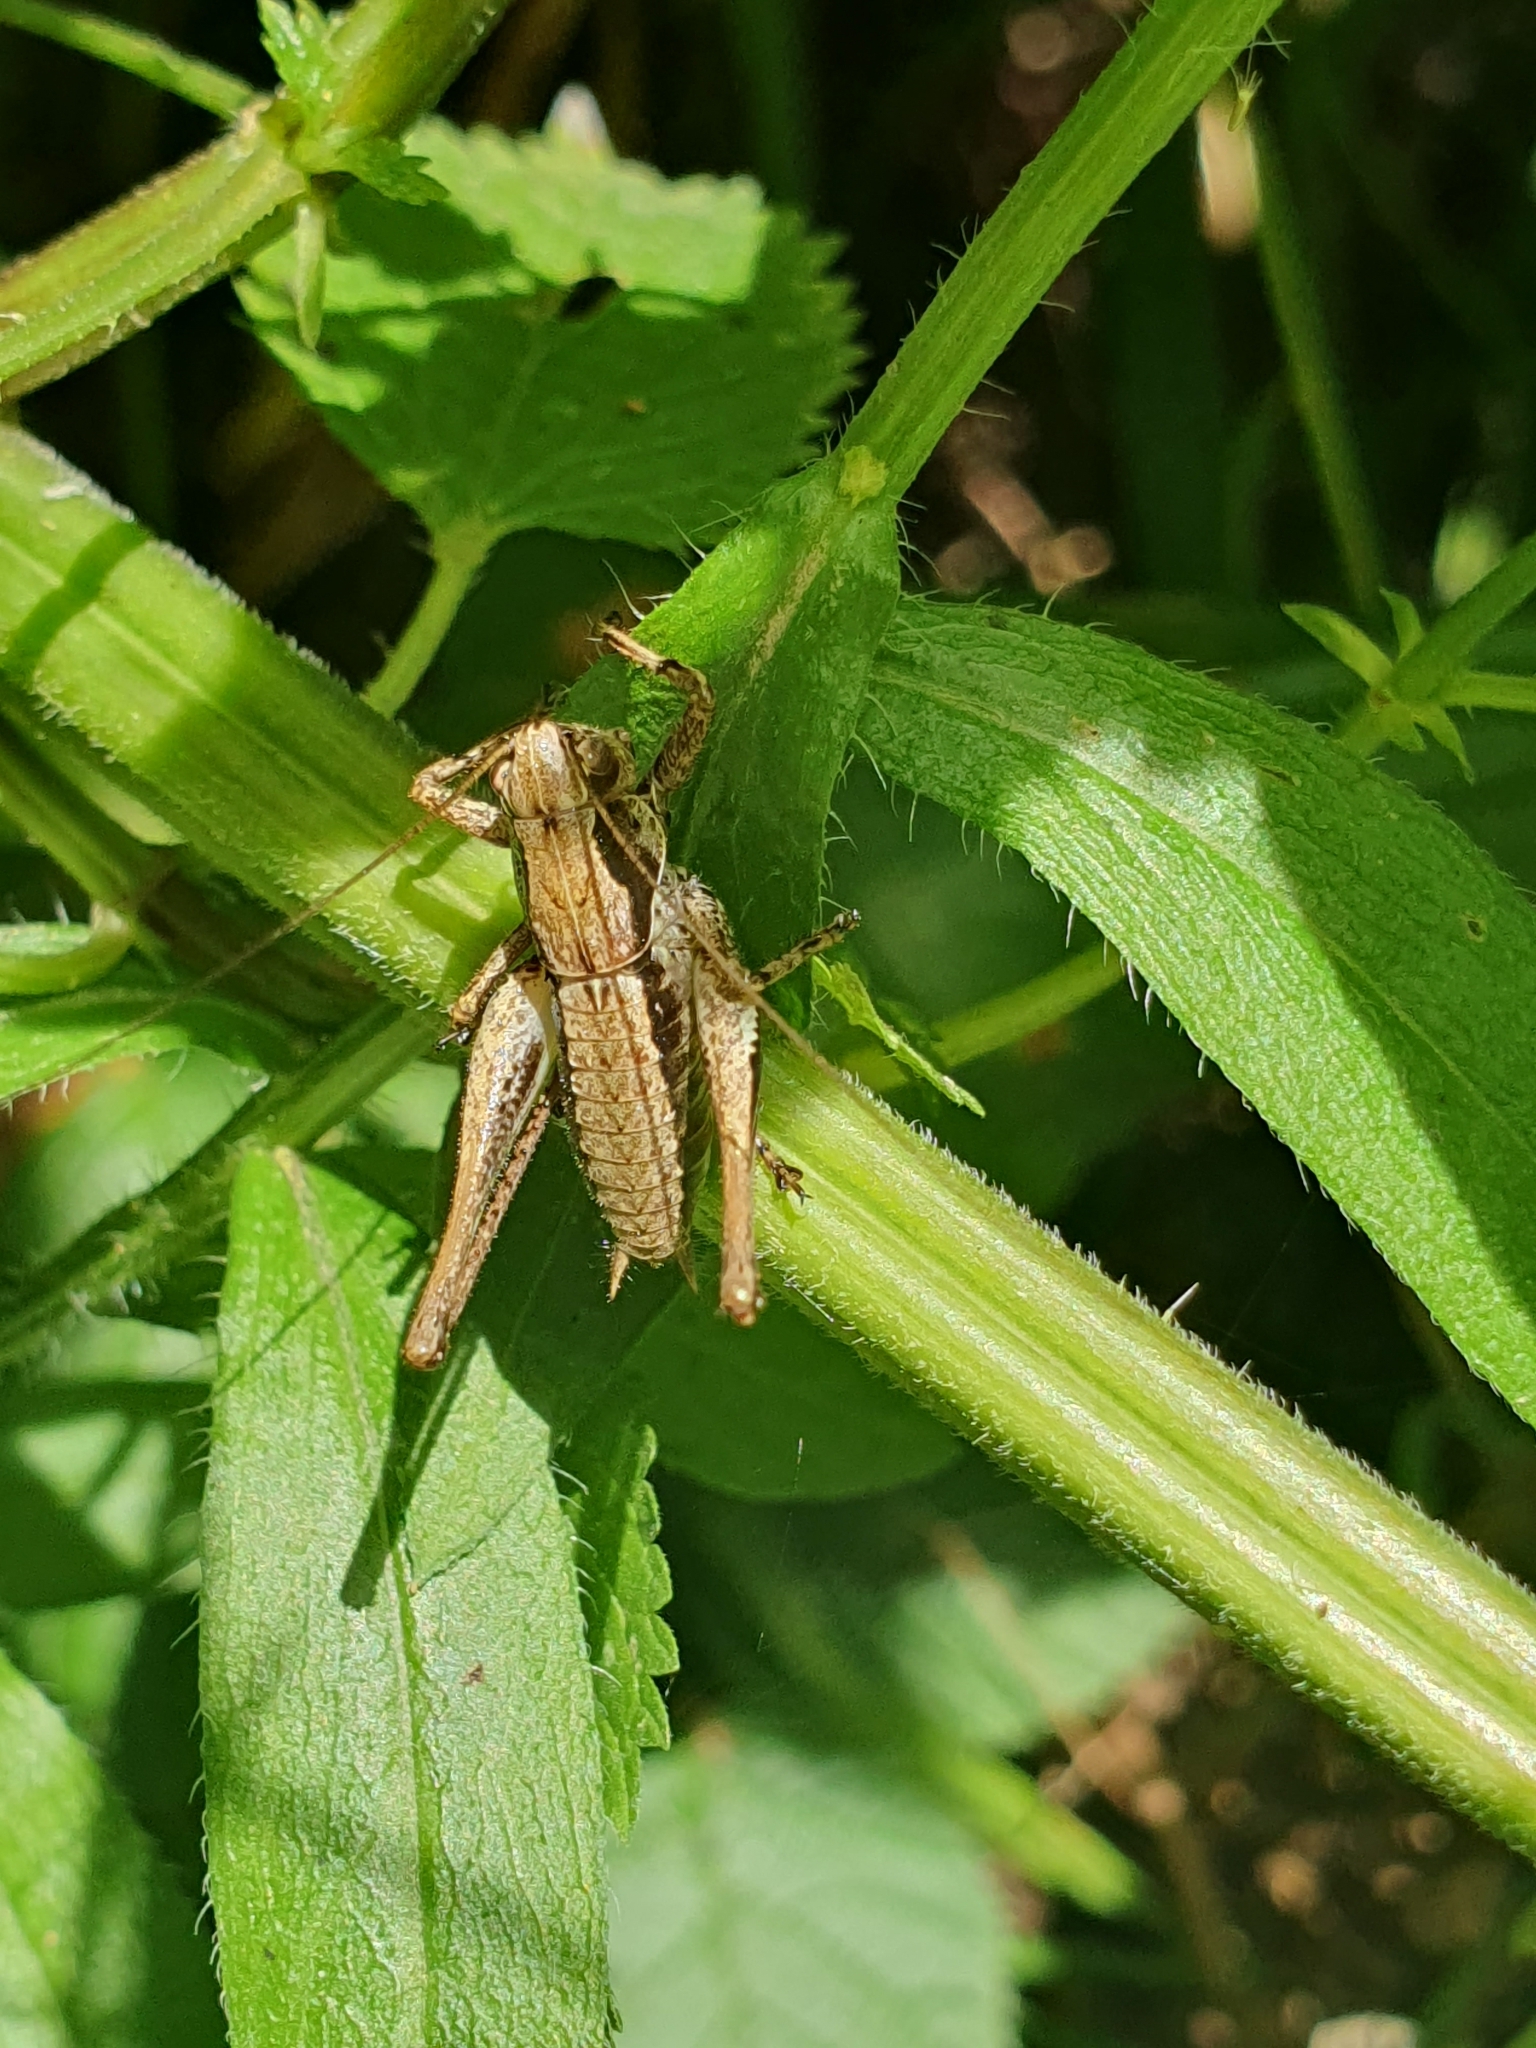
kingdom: Animalia
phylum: Arthropoda
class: Insecta
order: Orthoptera
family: Tettigoniidae
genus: Pholidoptera
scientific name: Pholidoptera griseoaptera
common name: Dark bush-cricket
